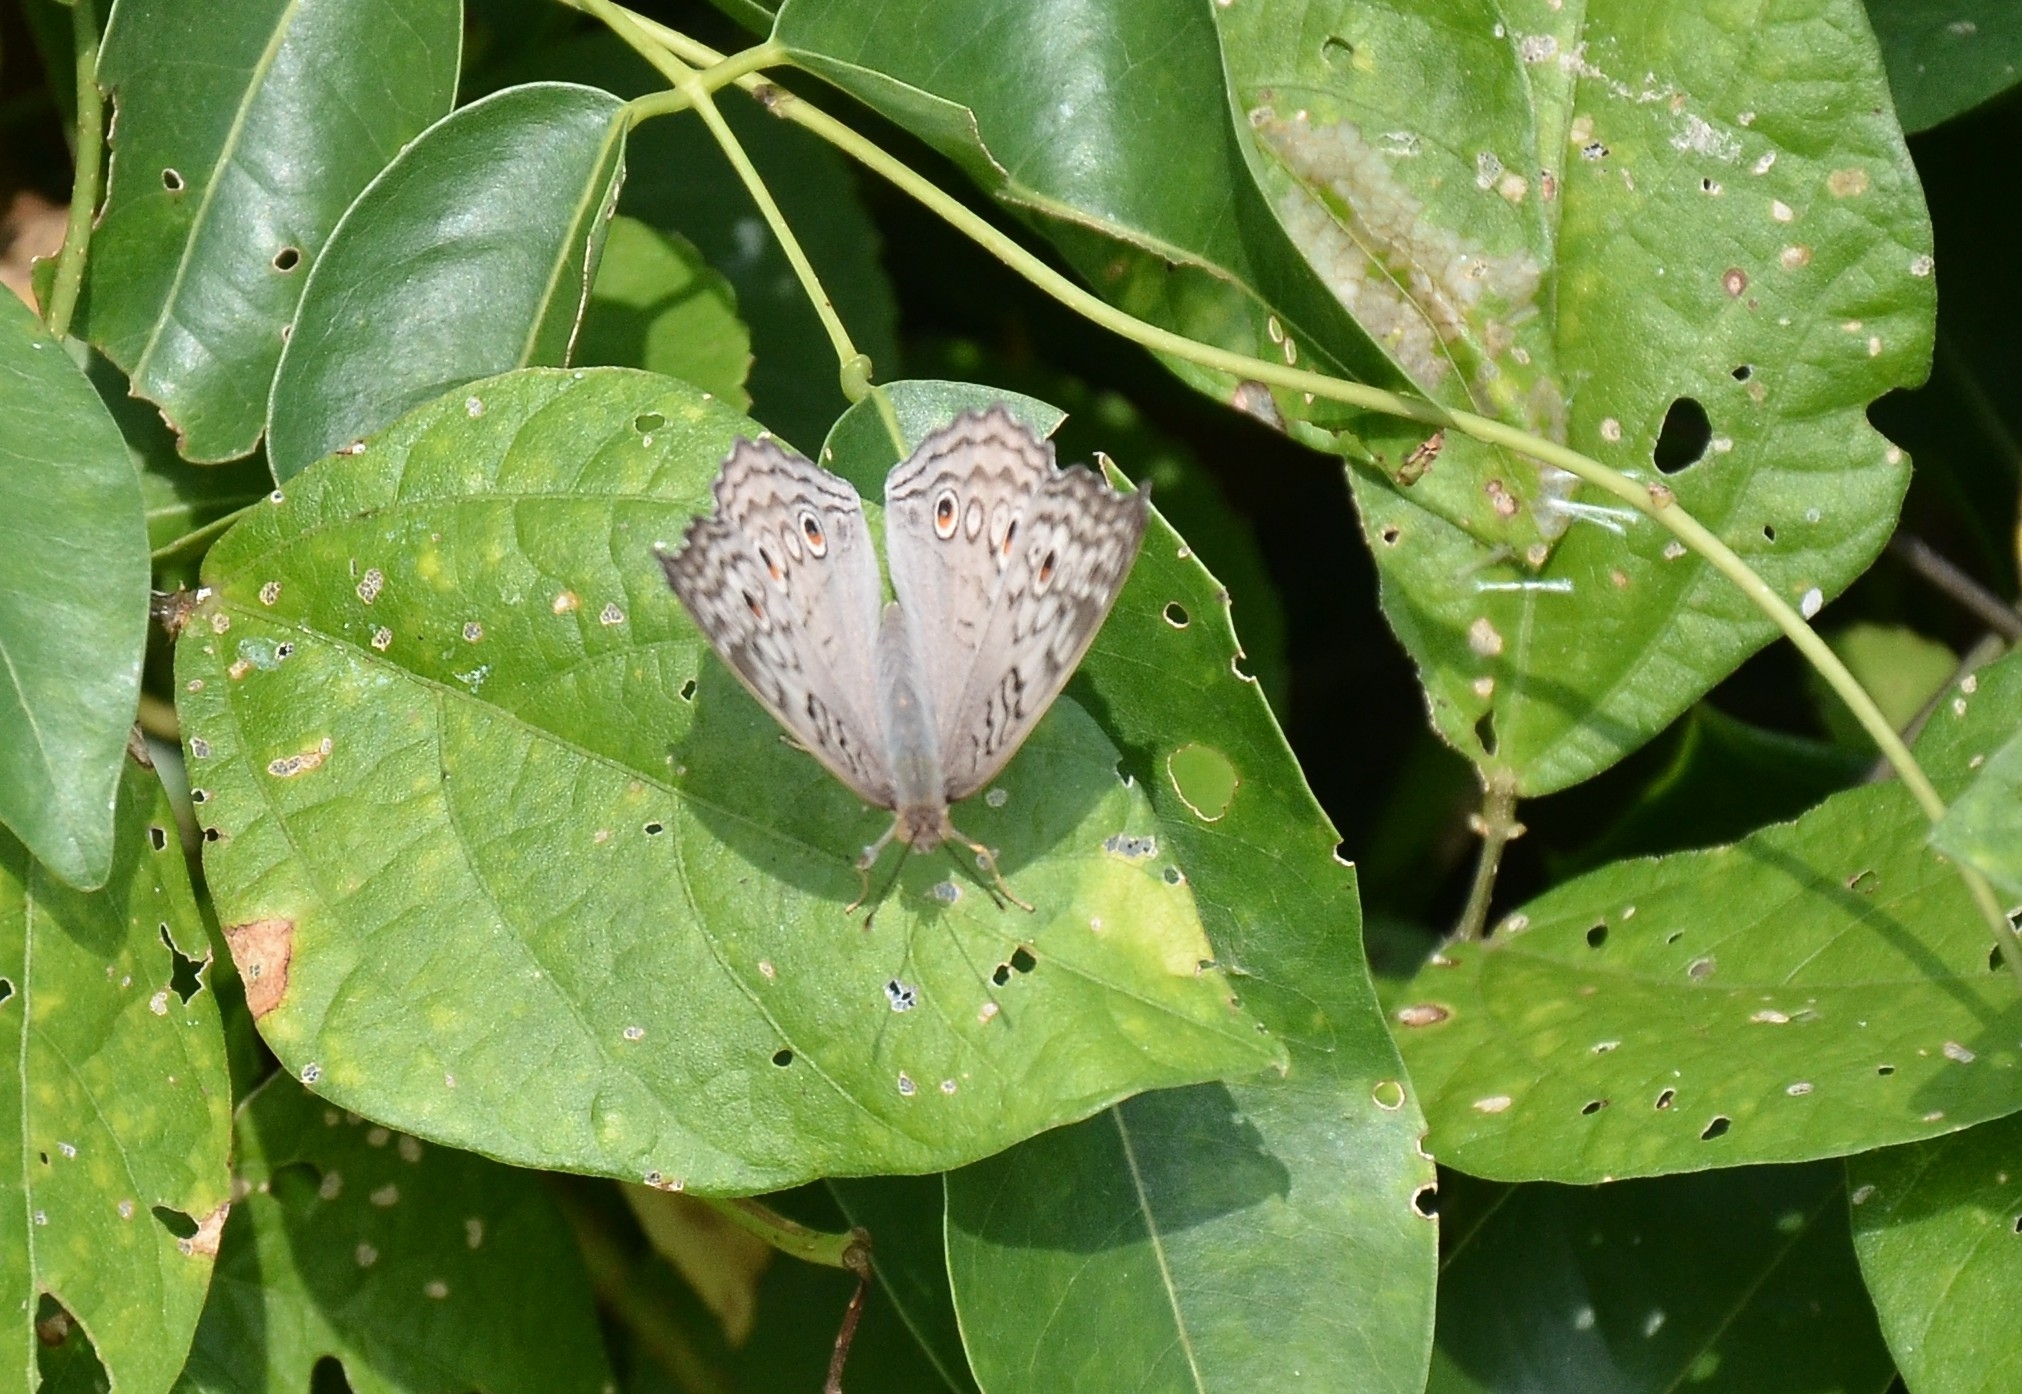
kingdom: Animalia
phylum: Arthropoda
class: Insecta
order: Lepidoptera
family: Nymphalidae
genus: Junonia
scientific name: Junonia atlites
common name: Grey pansy
